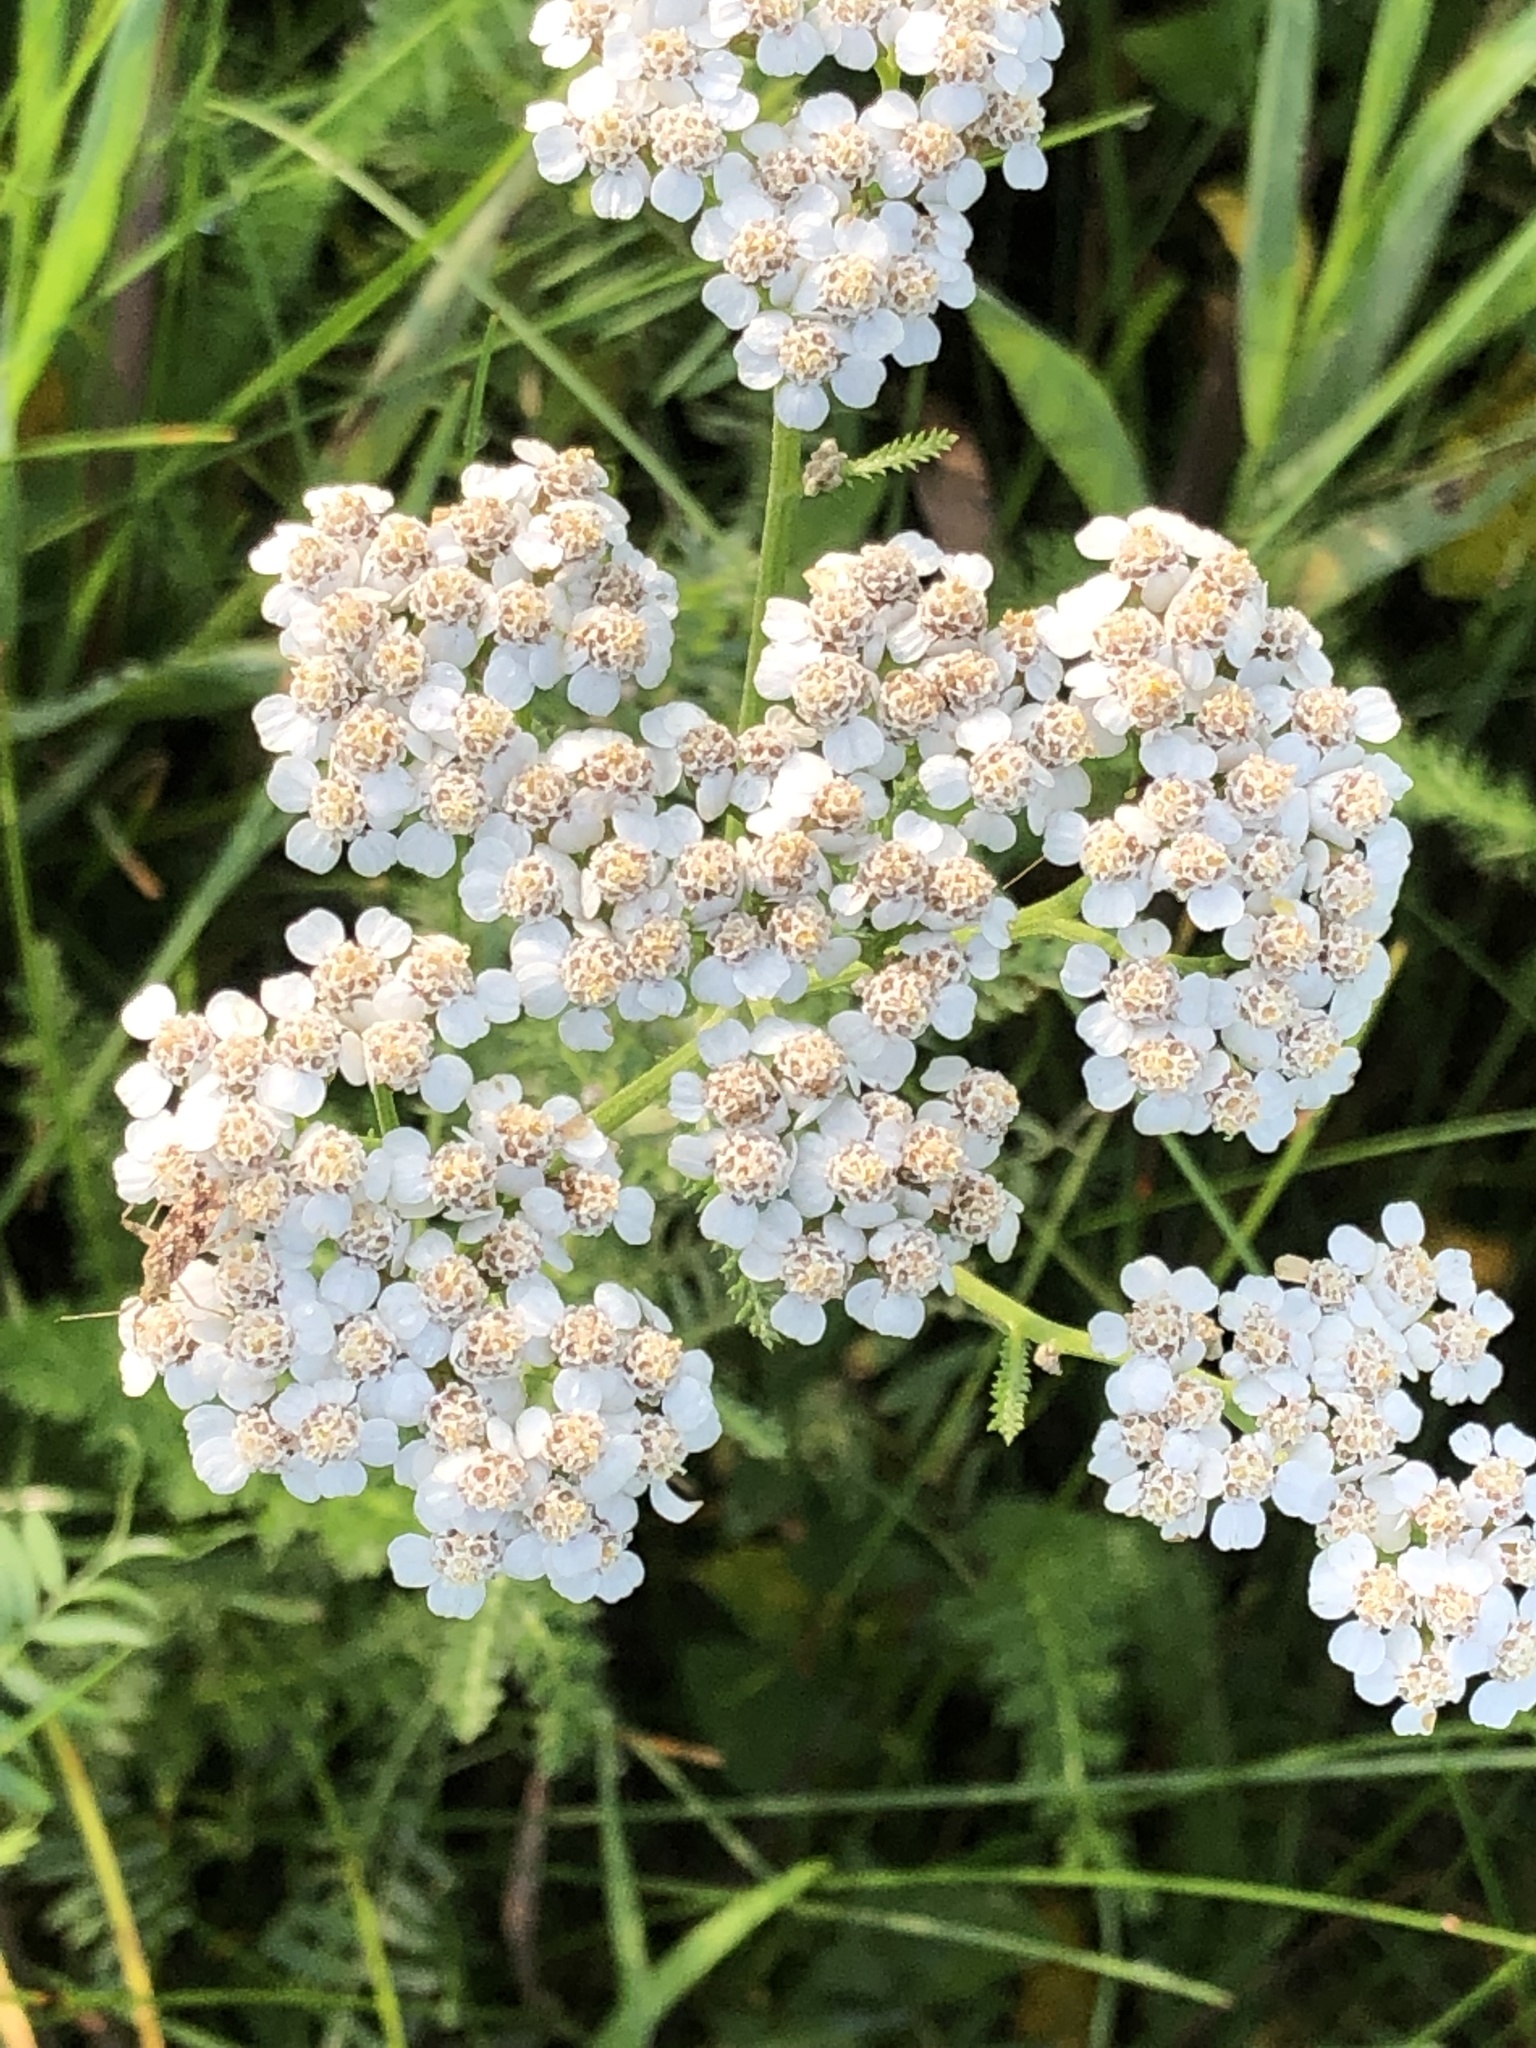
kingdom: Plantae
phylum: Tracheophyta
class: Magnoliopsida
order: Asterales
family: Asteraceae
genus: Achillea
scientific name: Achillea millefolium
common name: Yarrow
